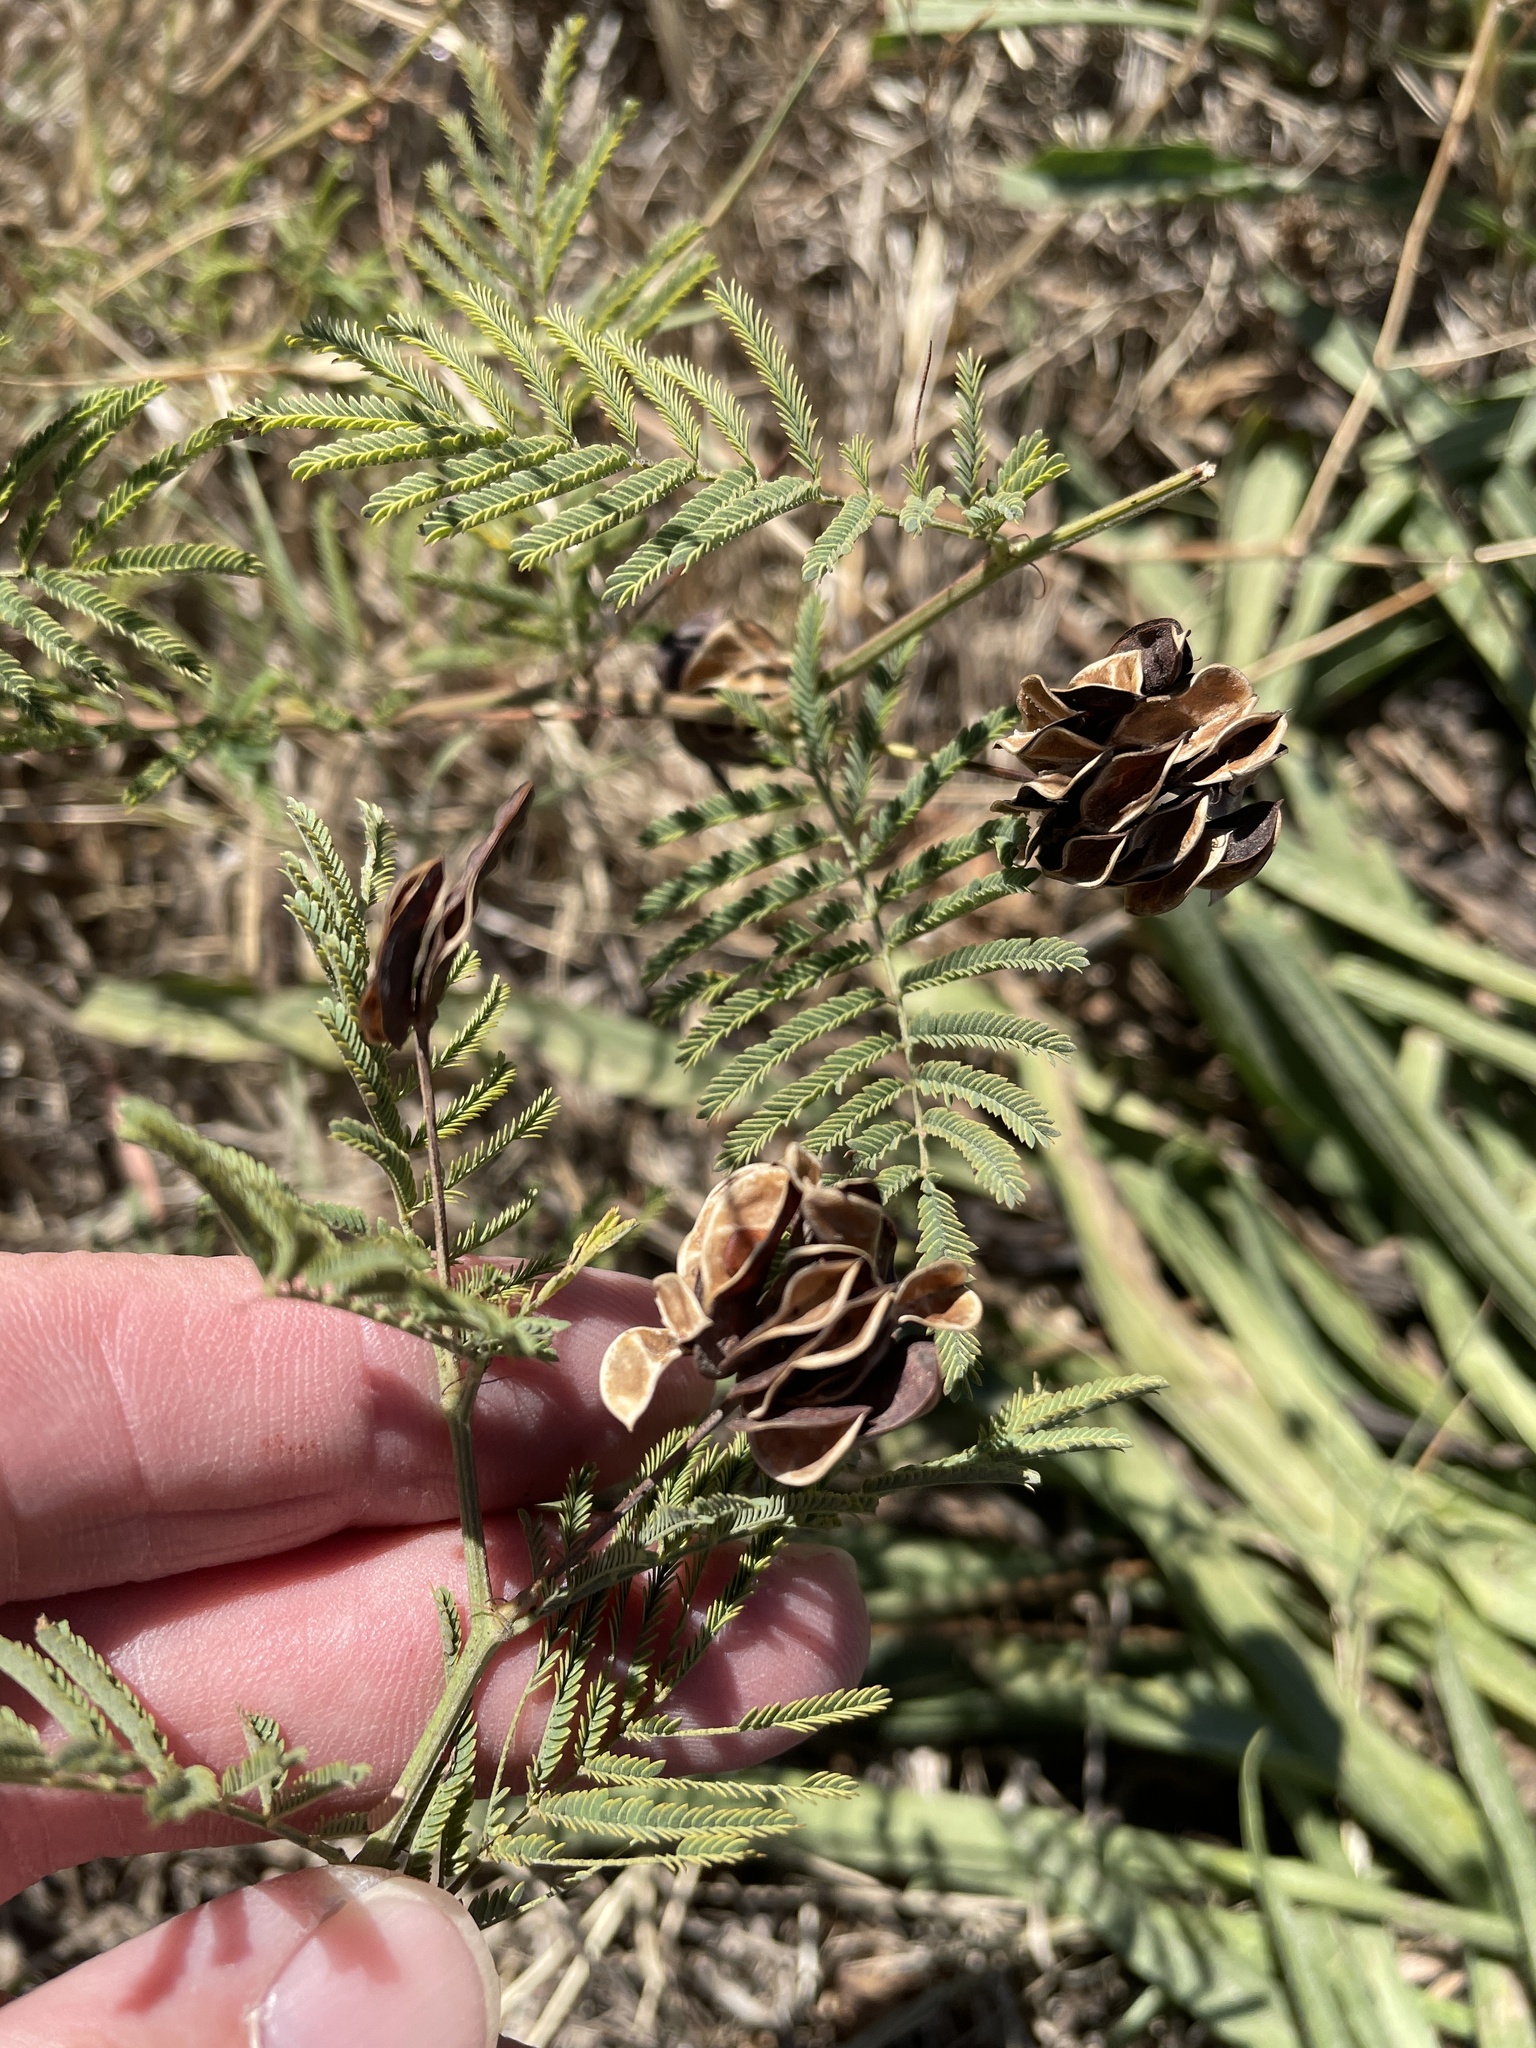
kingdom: Plantae
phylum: Tracheophyta
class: Magnoliopsida
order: Fabales
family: Fabaceae
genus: Desmanthus
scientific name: Desmanthus illinoensis
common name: Illinois bundle-flower
